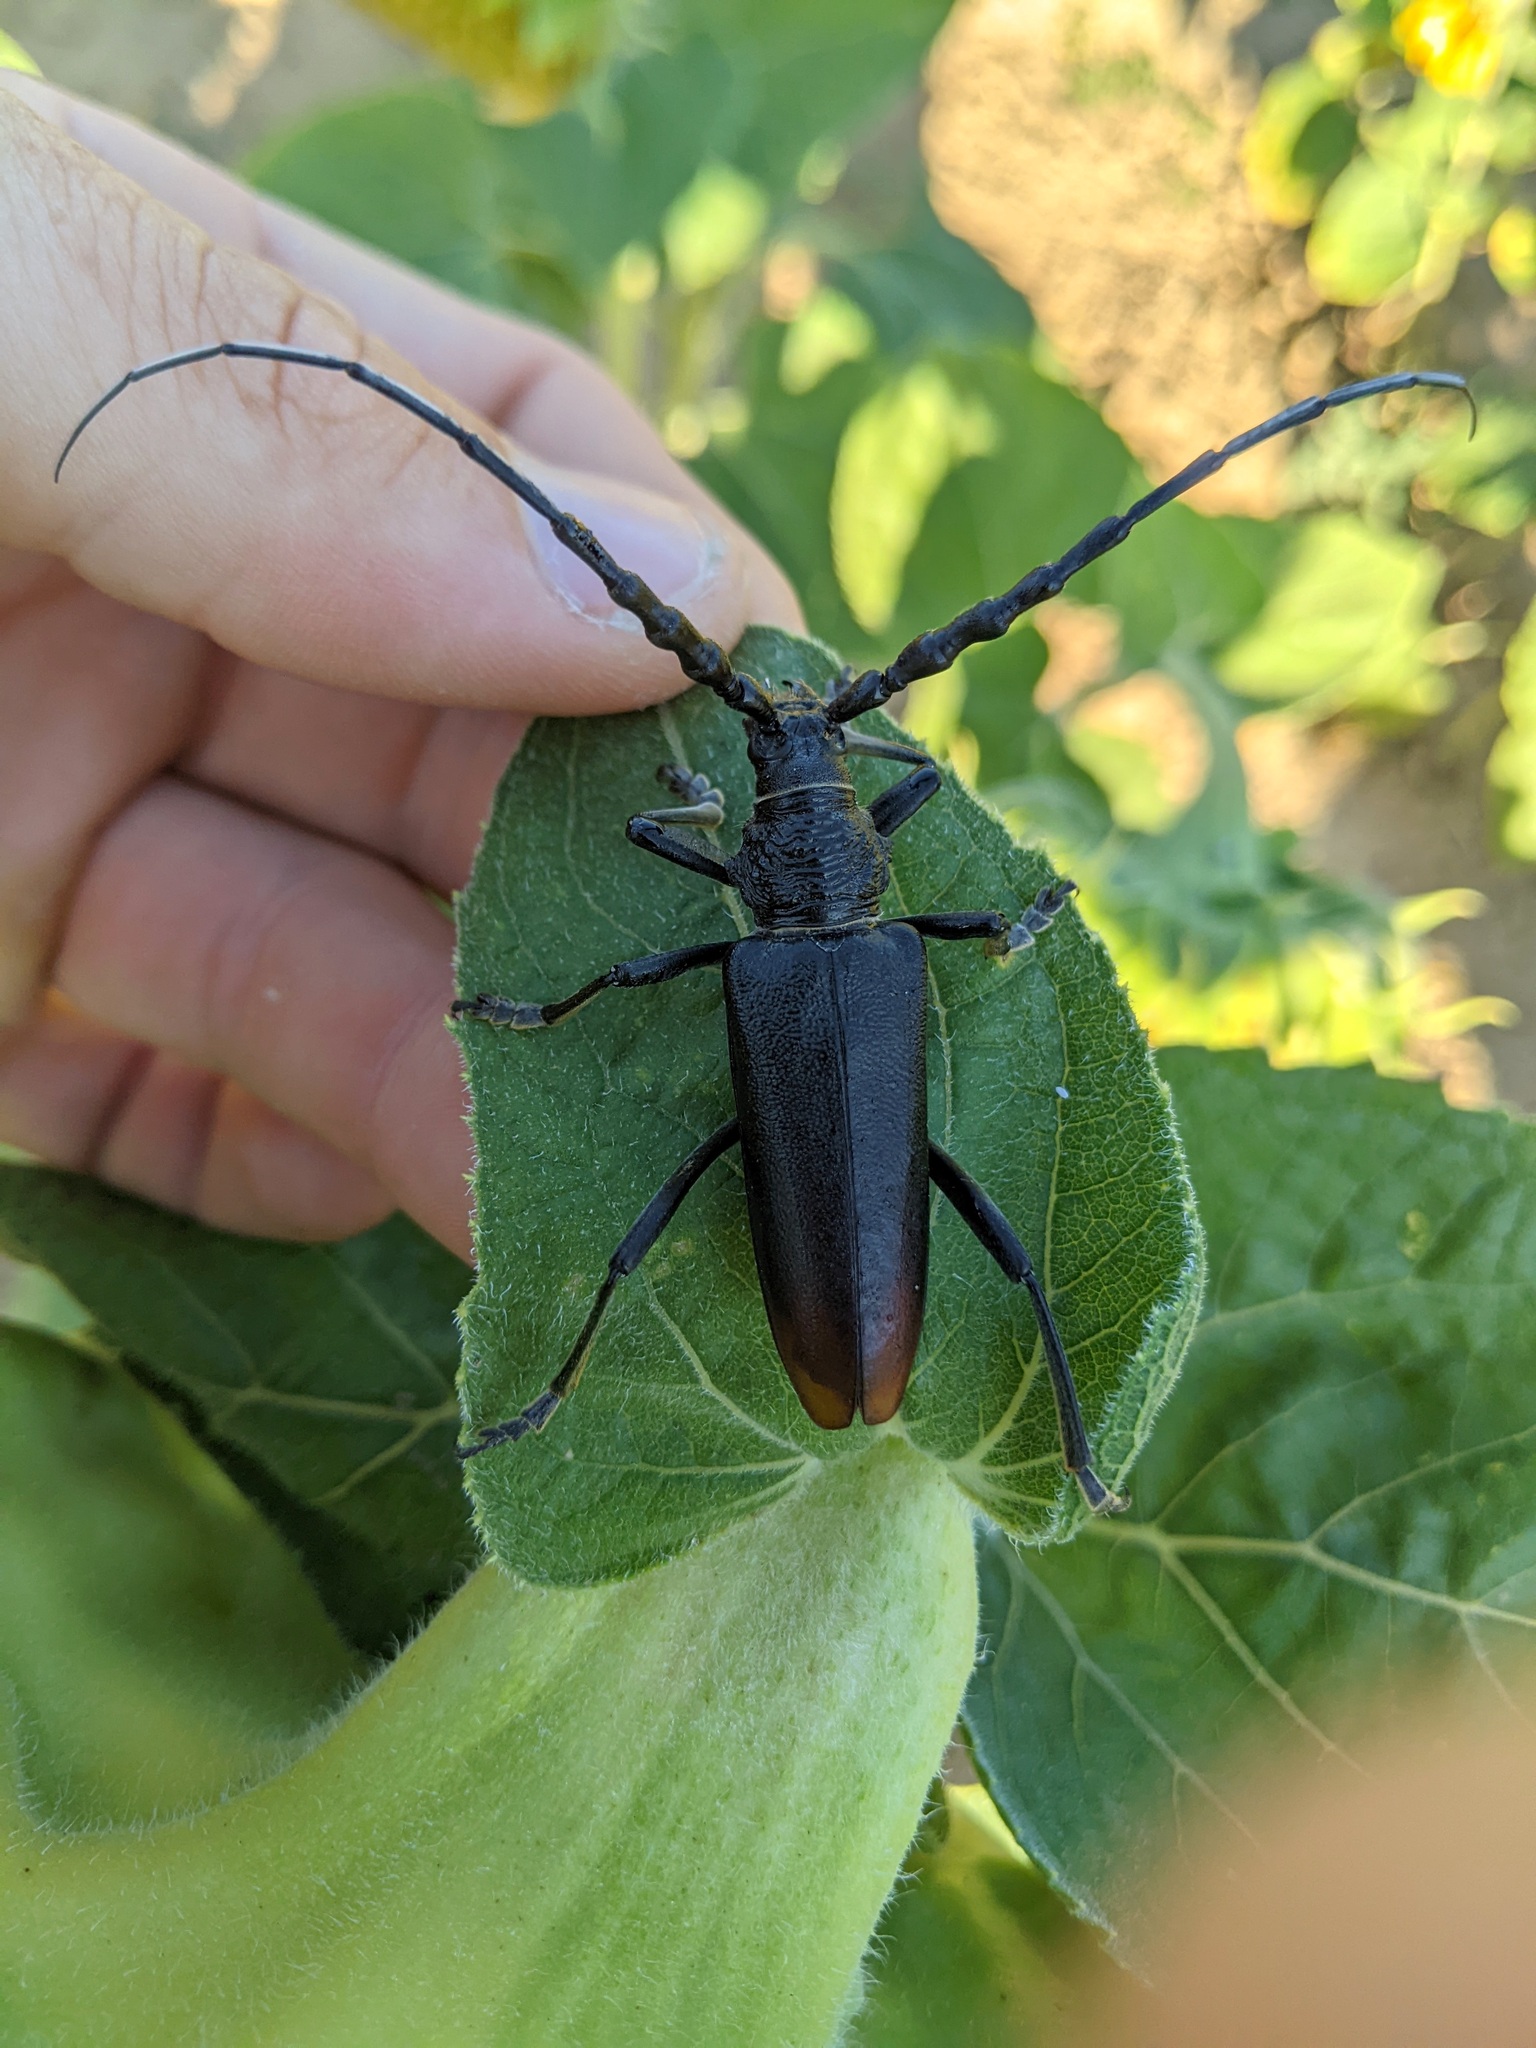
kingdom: Animalia
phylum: Arthropoda
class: Insecta
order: Coleoptera
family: Cerambycidae
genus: Cerambyx
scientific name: Cerambyx miles
